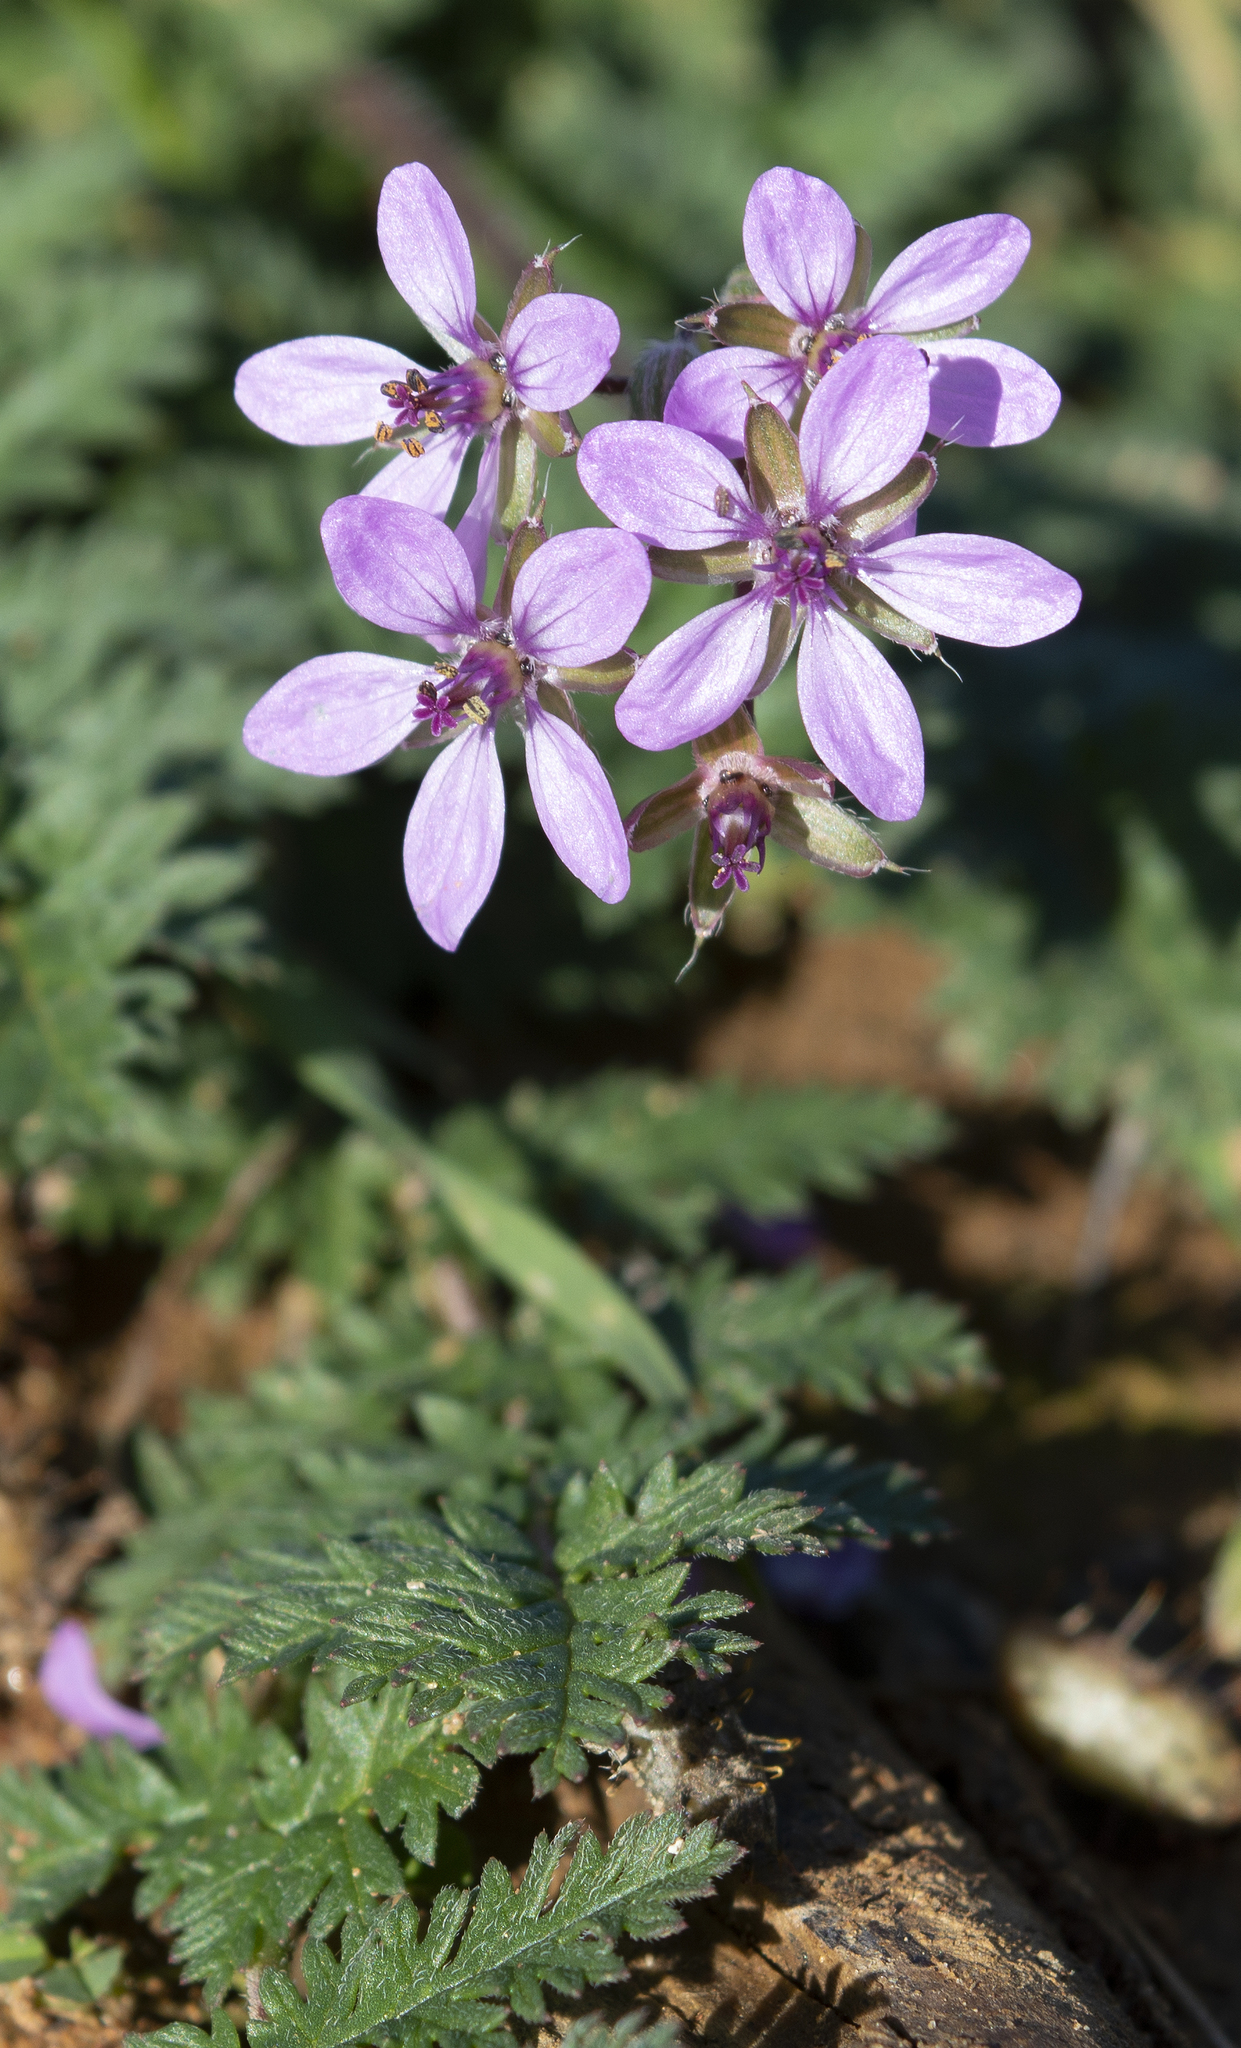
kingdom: Plantae
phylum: Tracheophyta
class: Magnoliopsida
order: Geraniales
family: Geraniaceae
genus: Erodium
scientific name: Erodium cicutarium
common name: Common stork's-bill
